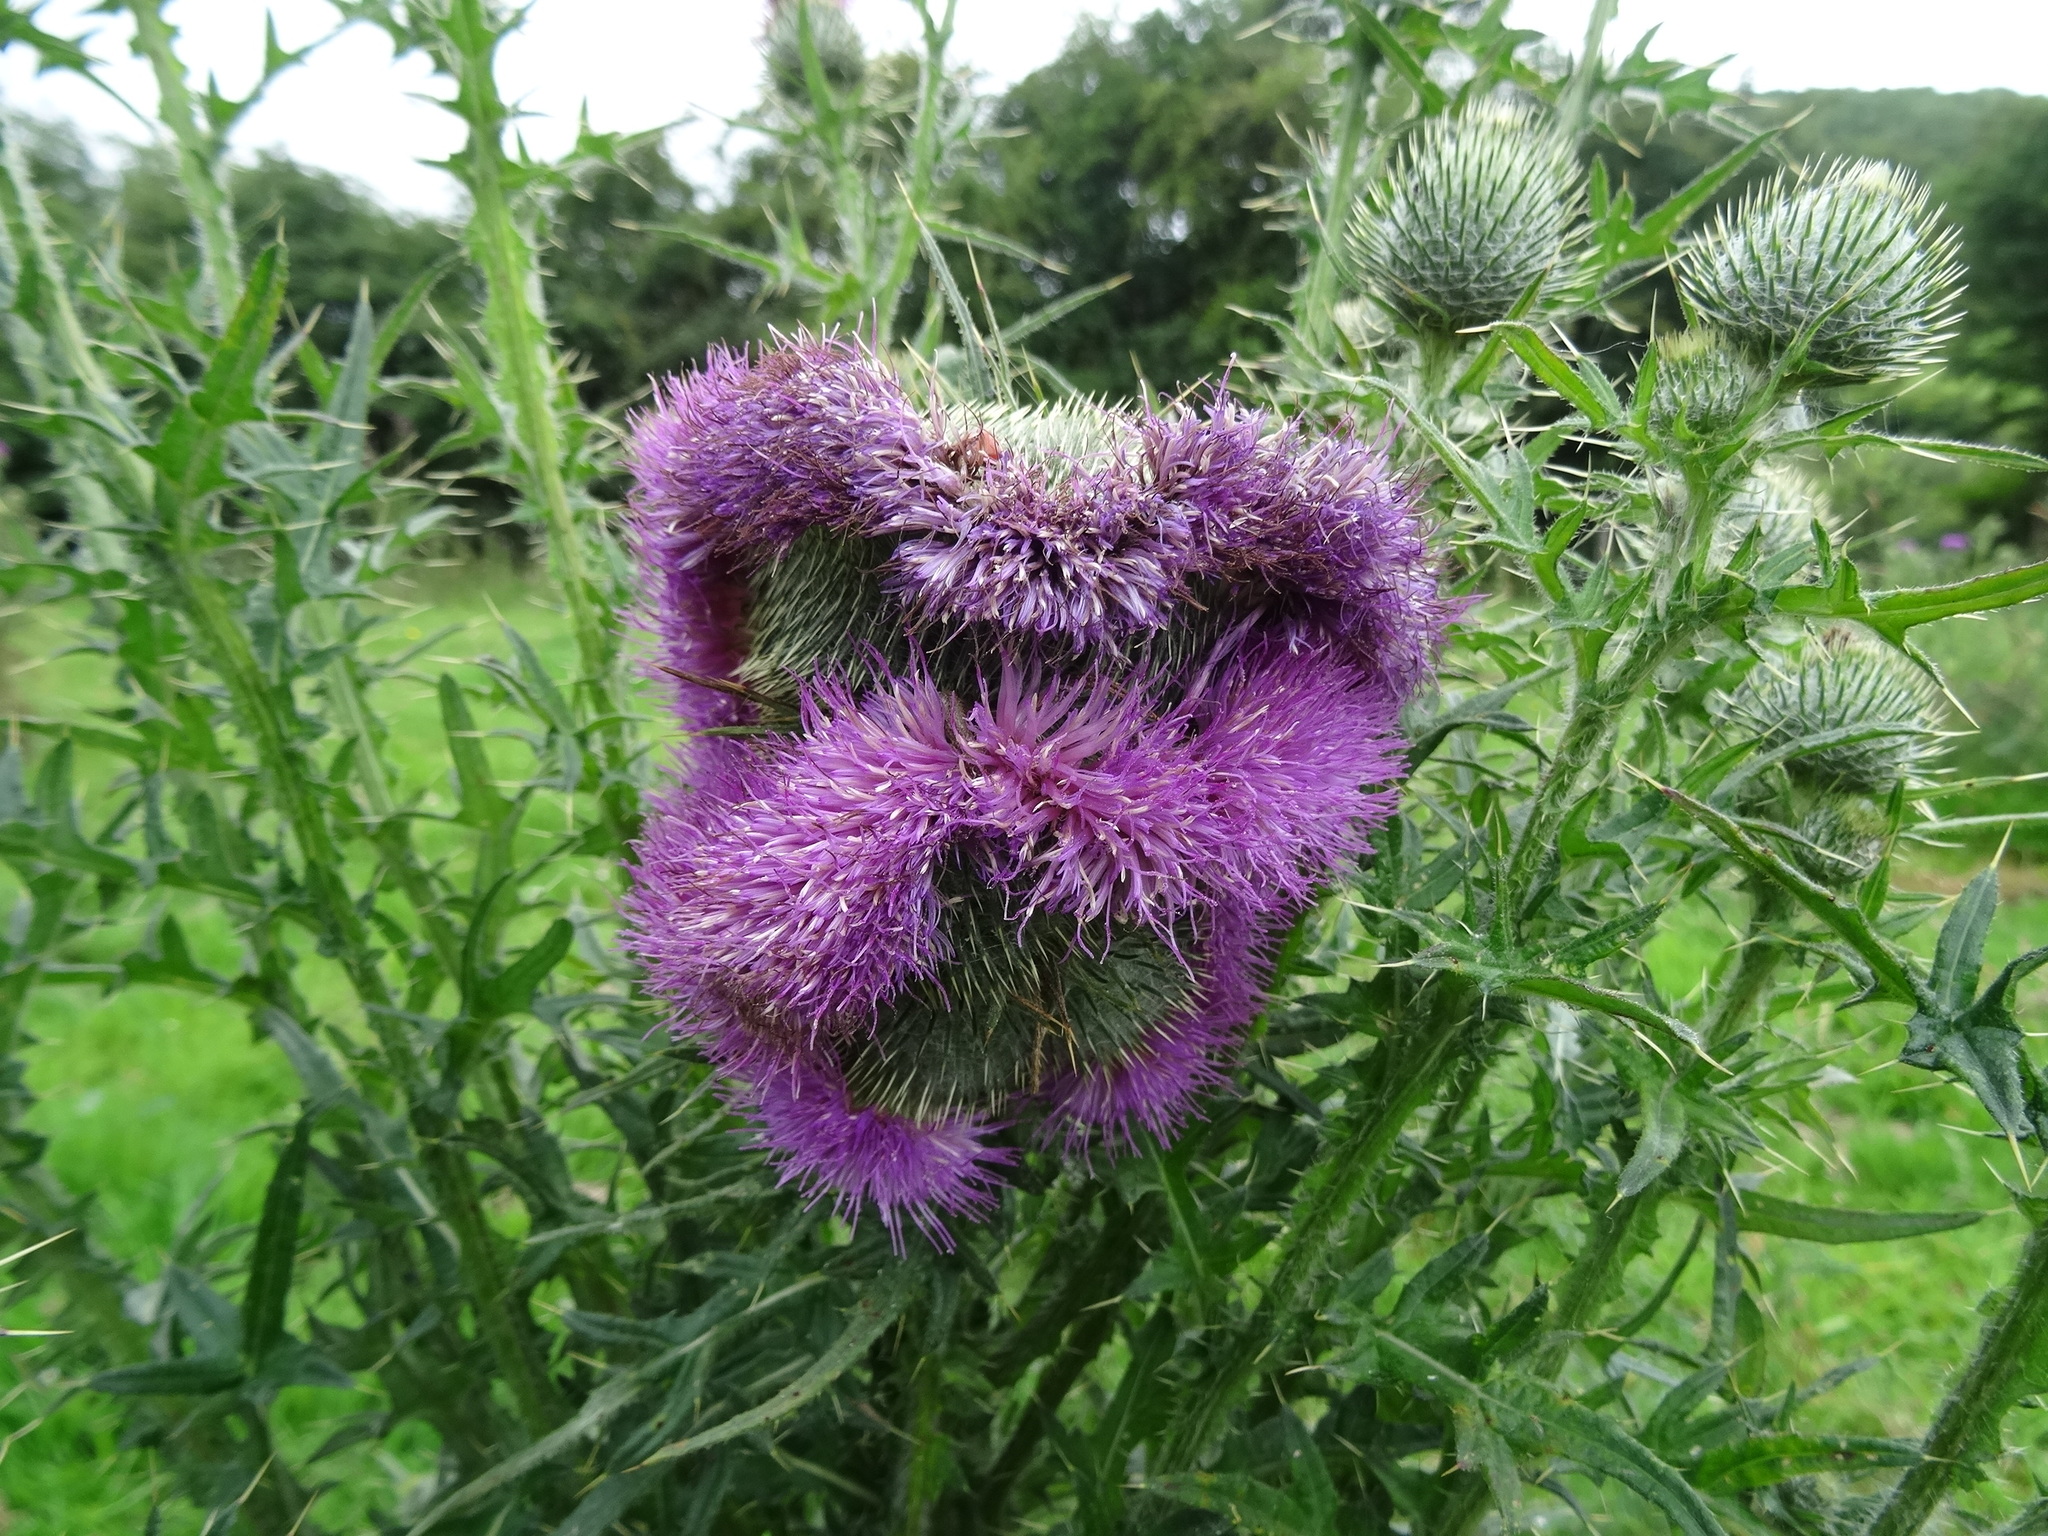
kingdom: Plantae
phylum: Tracheophyta
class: Magnoliopsida
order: Asterales
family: Asteraceae
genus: Cirsium
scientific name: Cirsium vulgare
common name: Bull thistle
